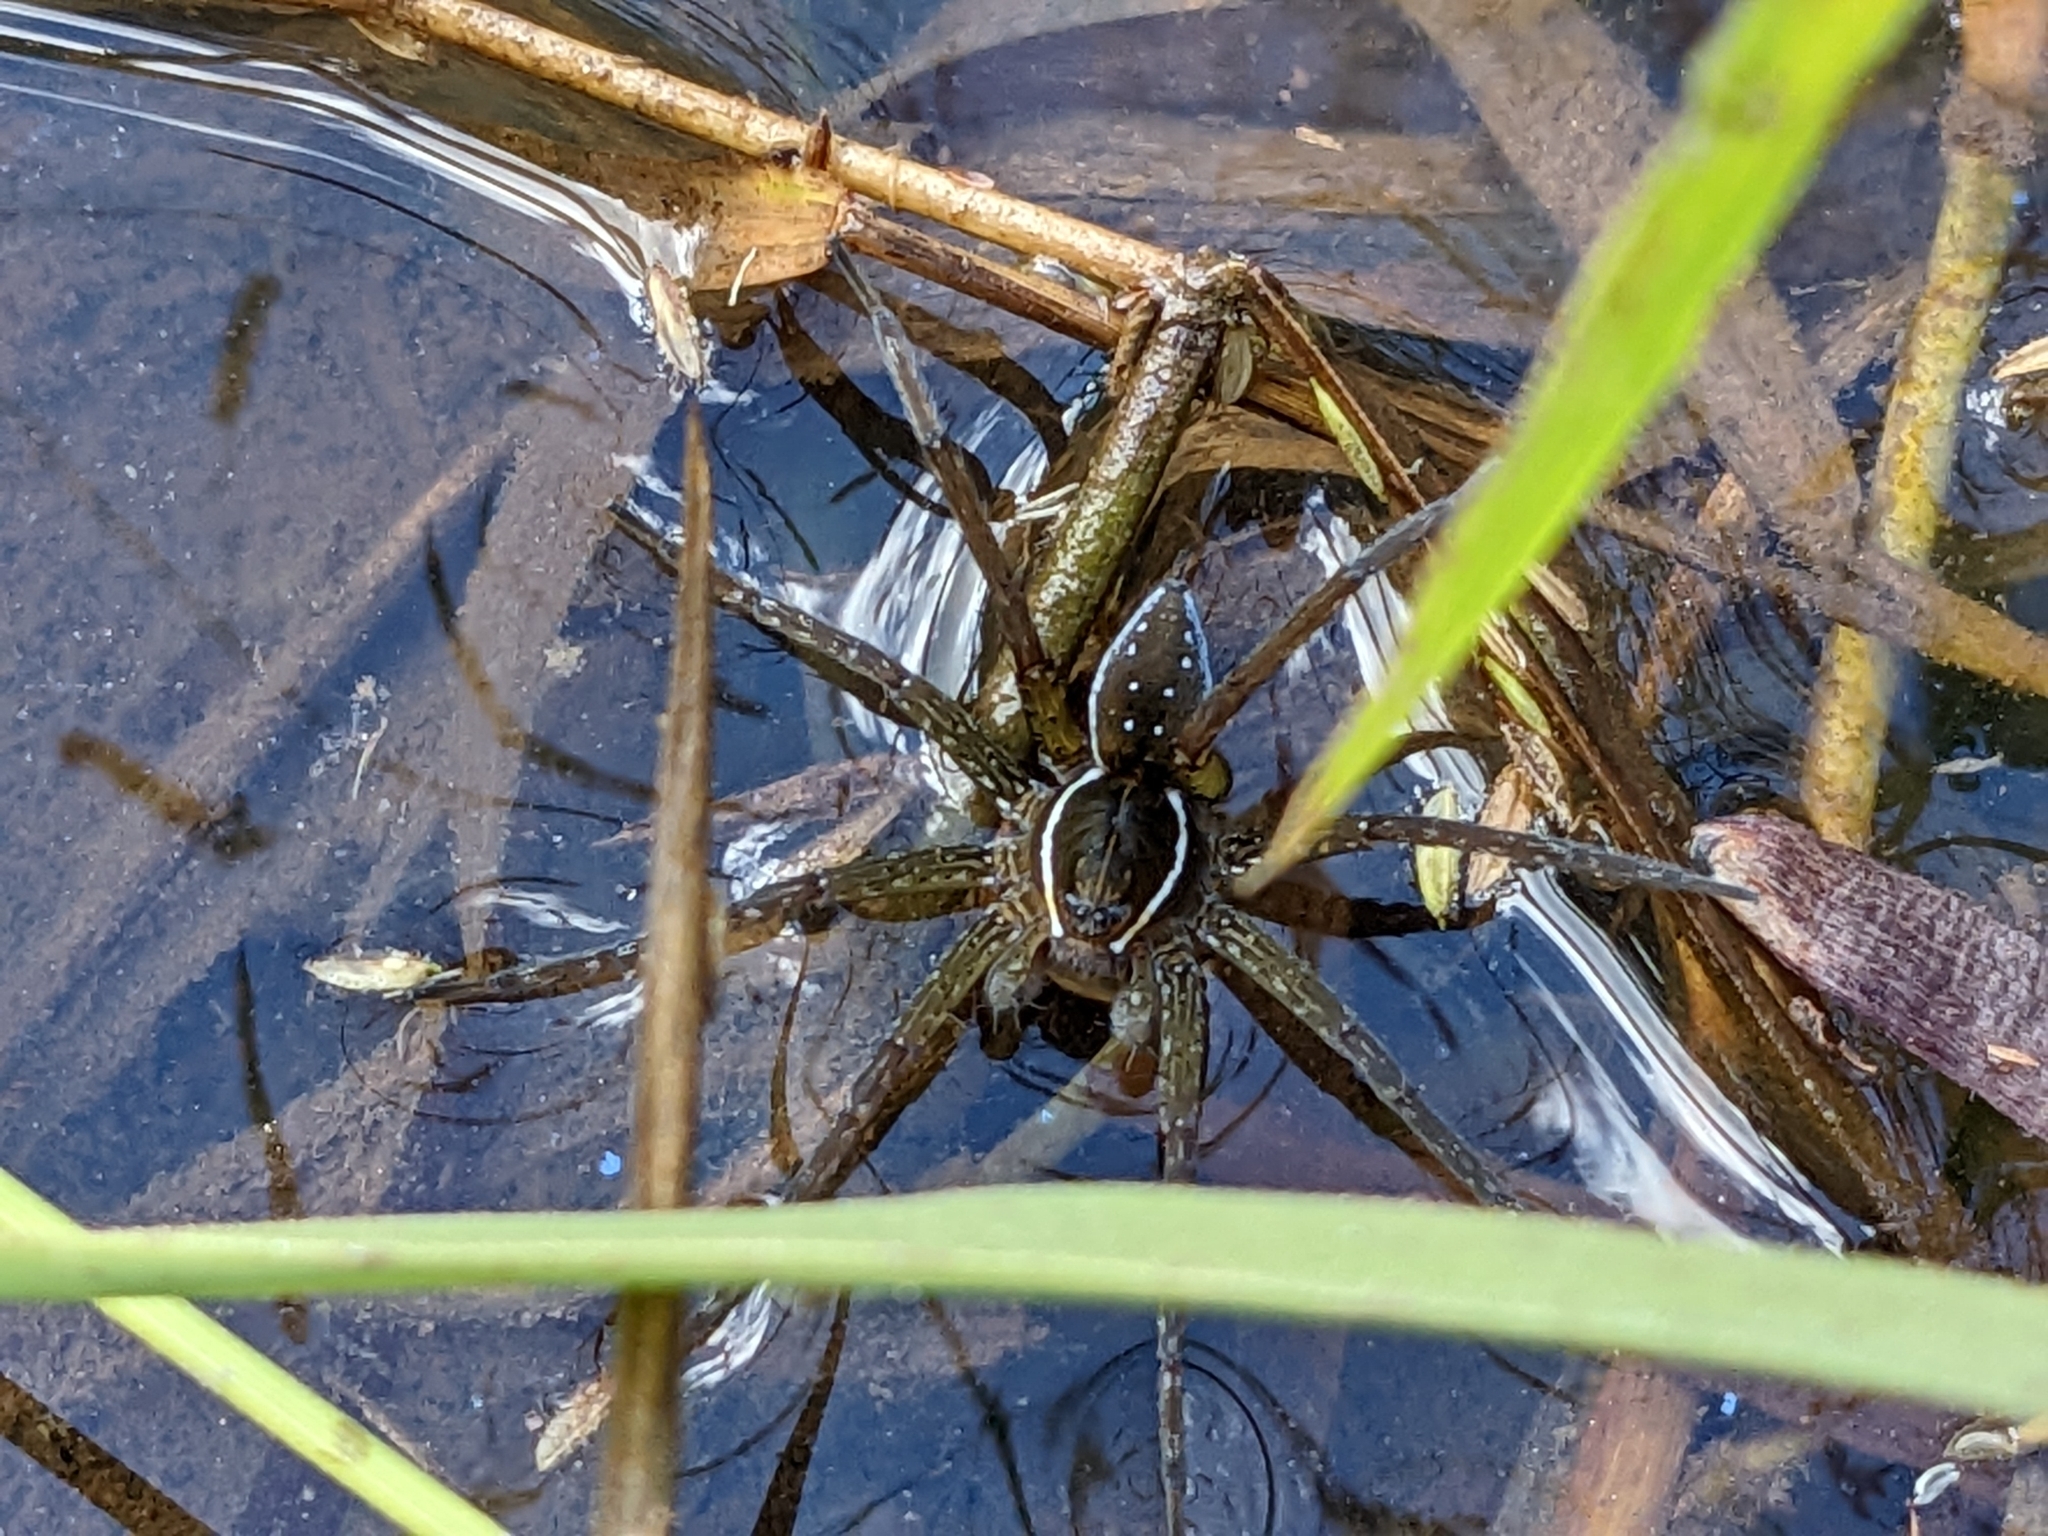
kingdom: Animalia
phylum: Arthropoda
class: Arachnida
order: Araneae
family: Pisauridae
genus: Dolomedes
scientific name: Dolomedes triton
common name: Six-spotted fishing spider
